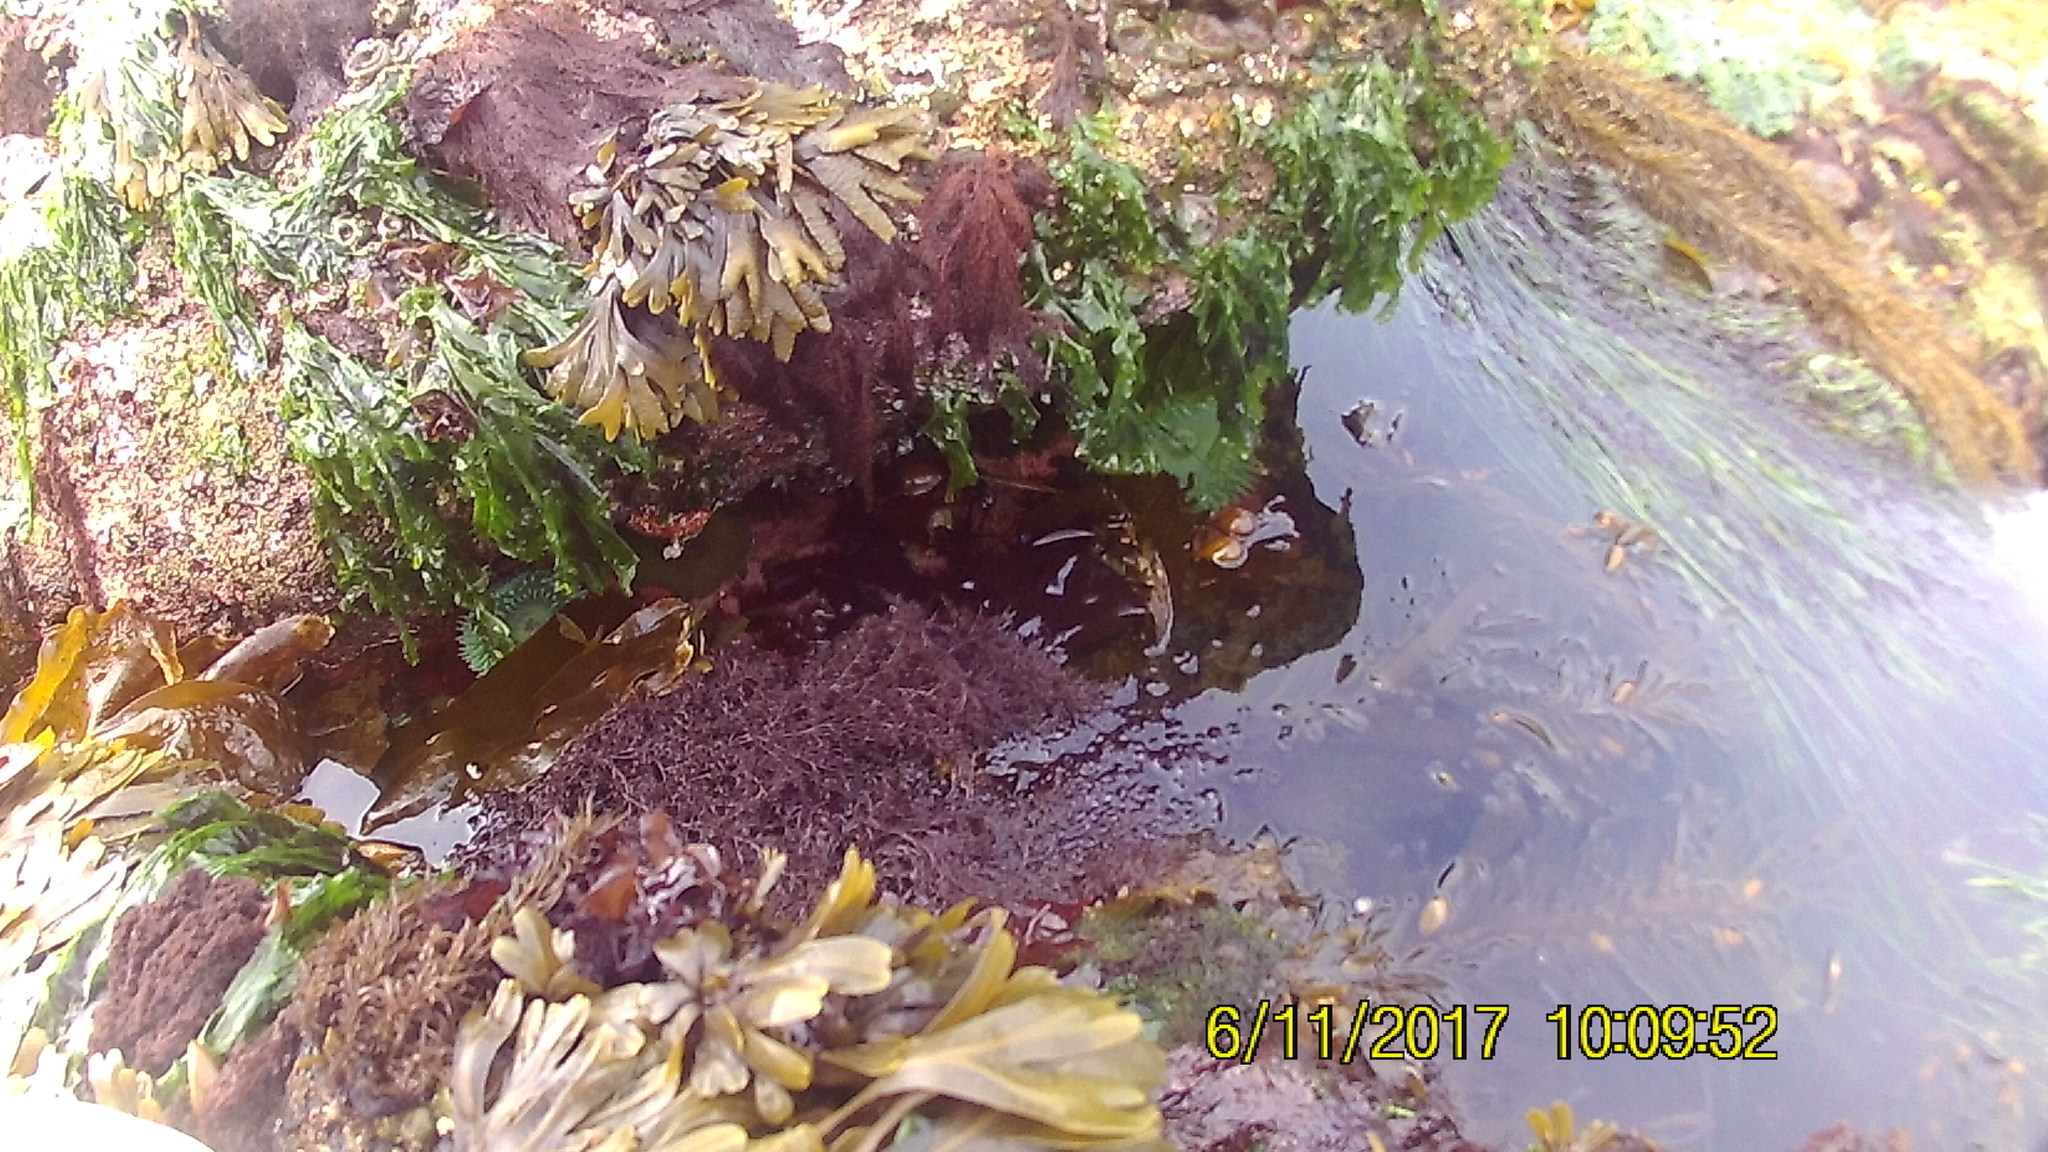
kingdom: Chromista
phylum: Ochrophyta
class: Phaeophyceae
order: Laminariales
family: Lessoniaceae
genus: Egregia
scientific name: Egregia menziesii
